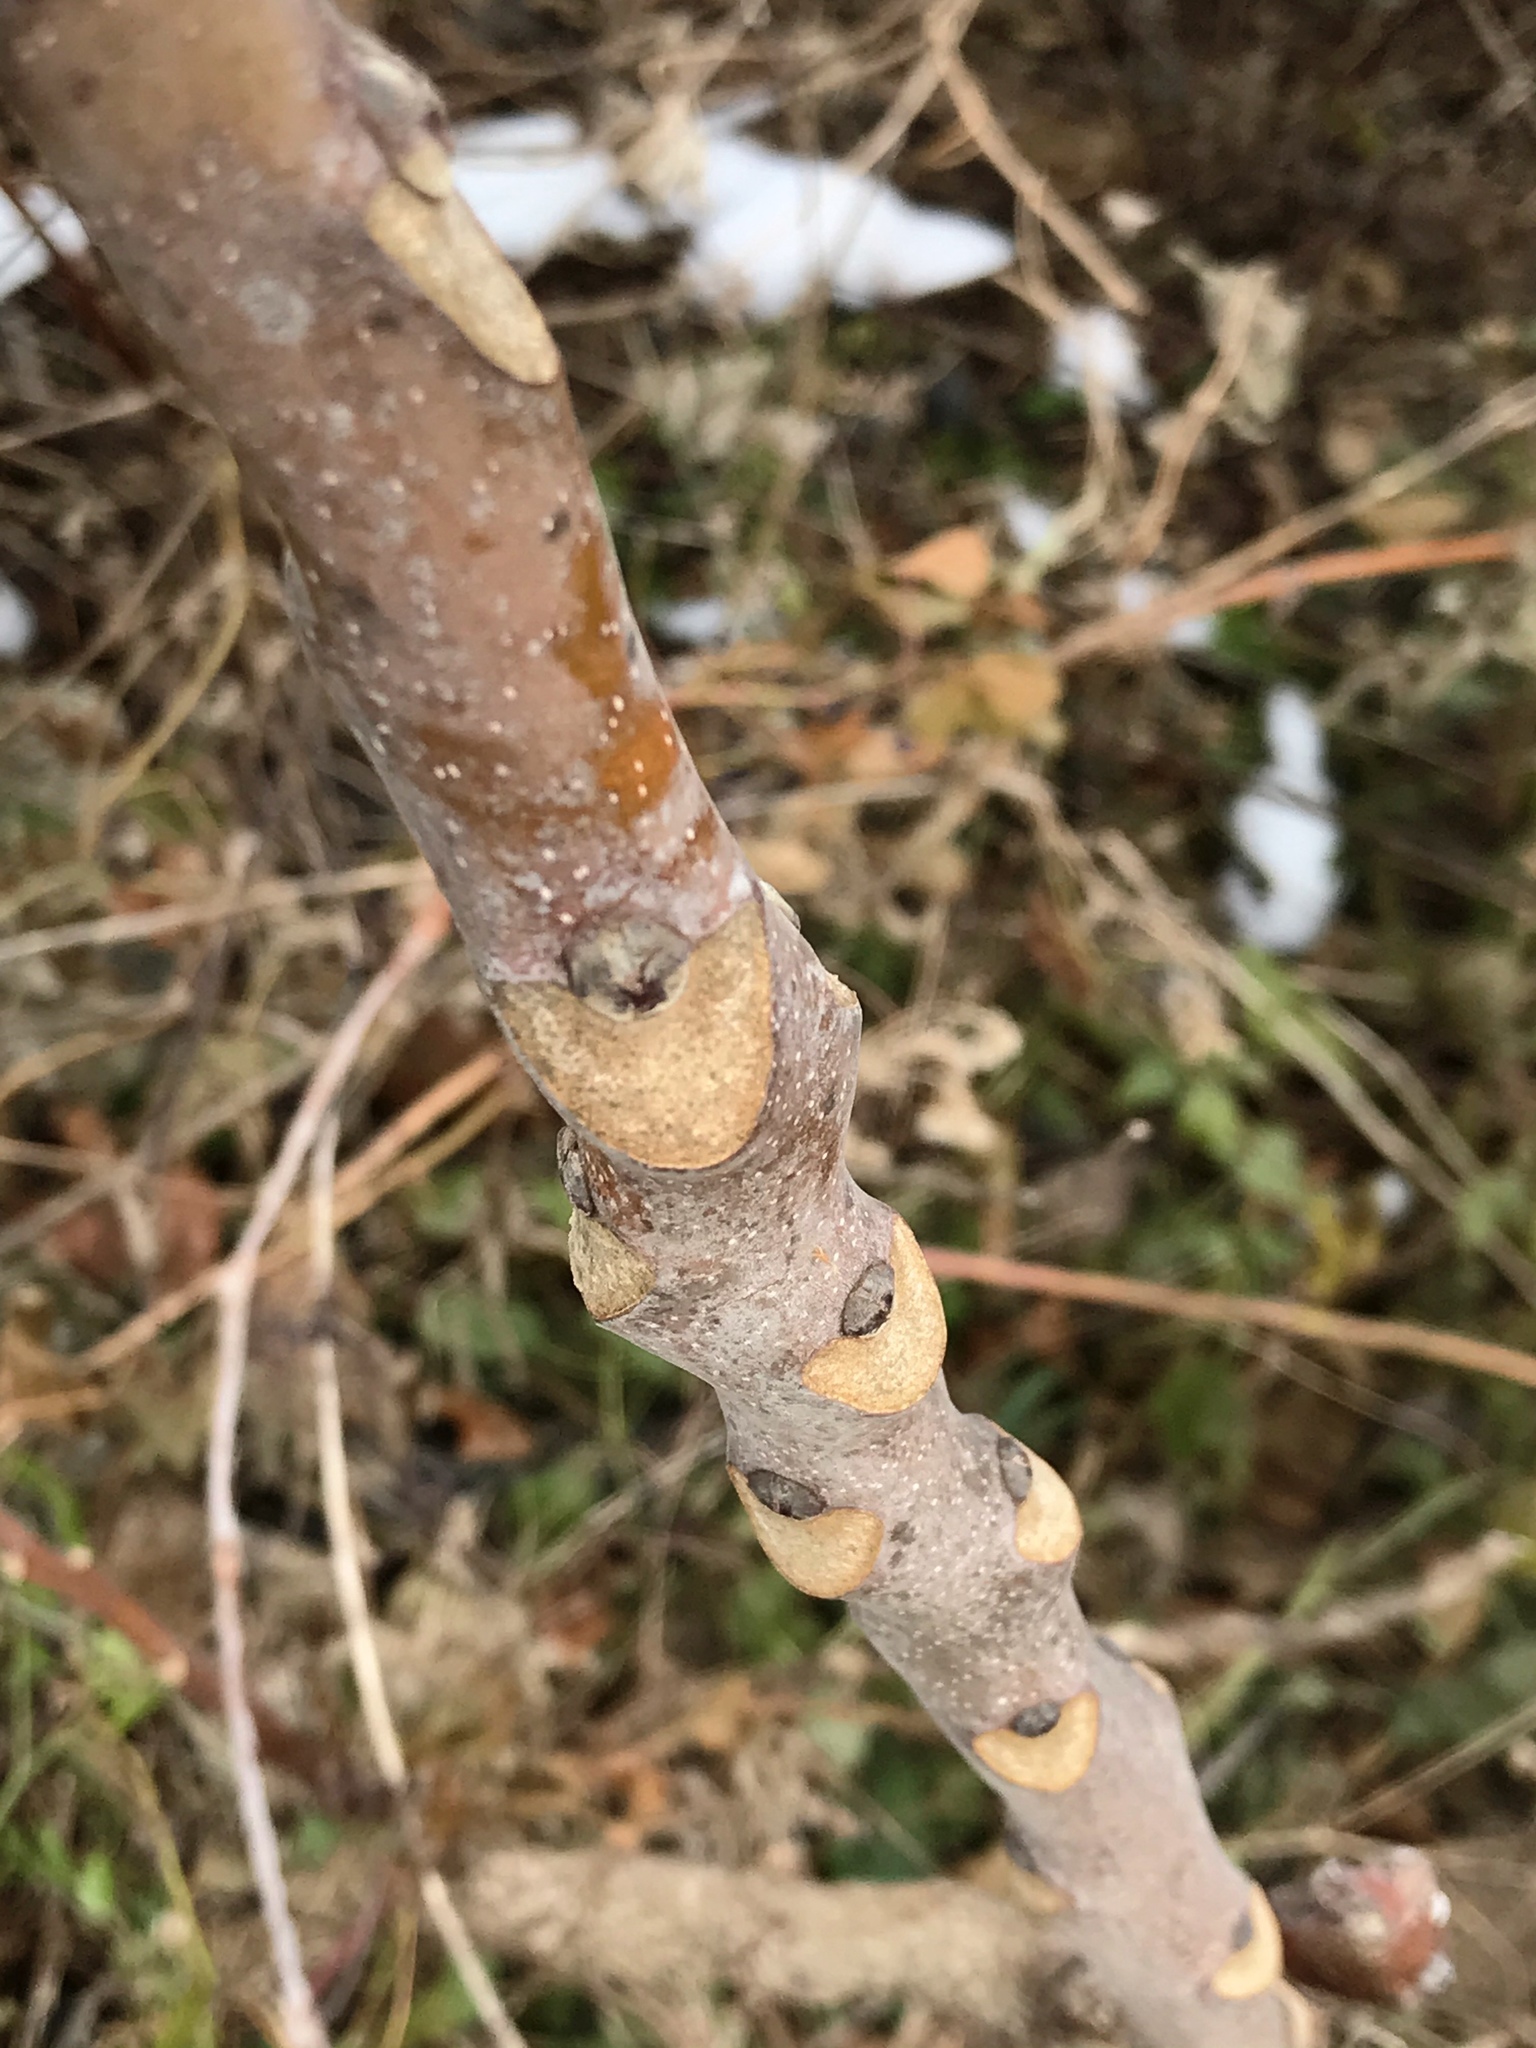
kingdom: Plantae
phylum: Tracheophyta
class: Magnoliopsida
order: Sapindales
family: Anacardiaceae
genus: Rhus
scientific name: Rhus glabra
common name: Scarlet sumac
